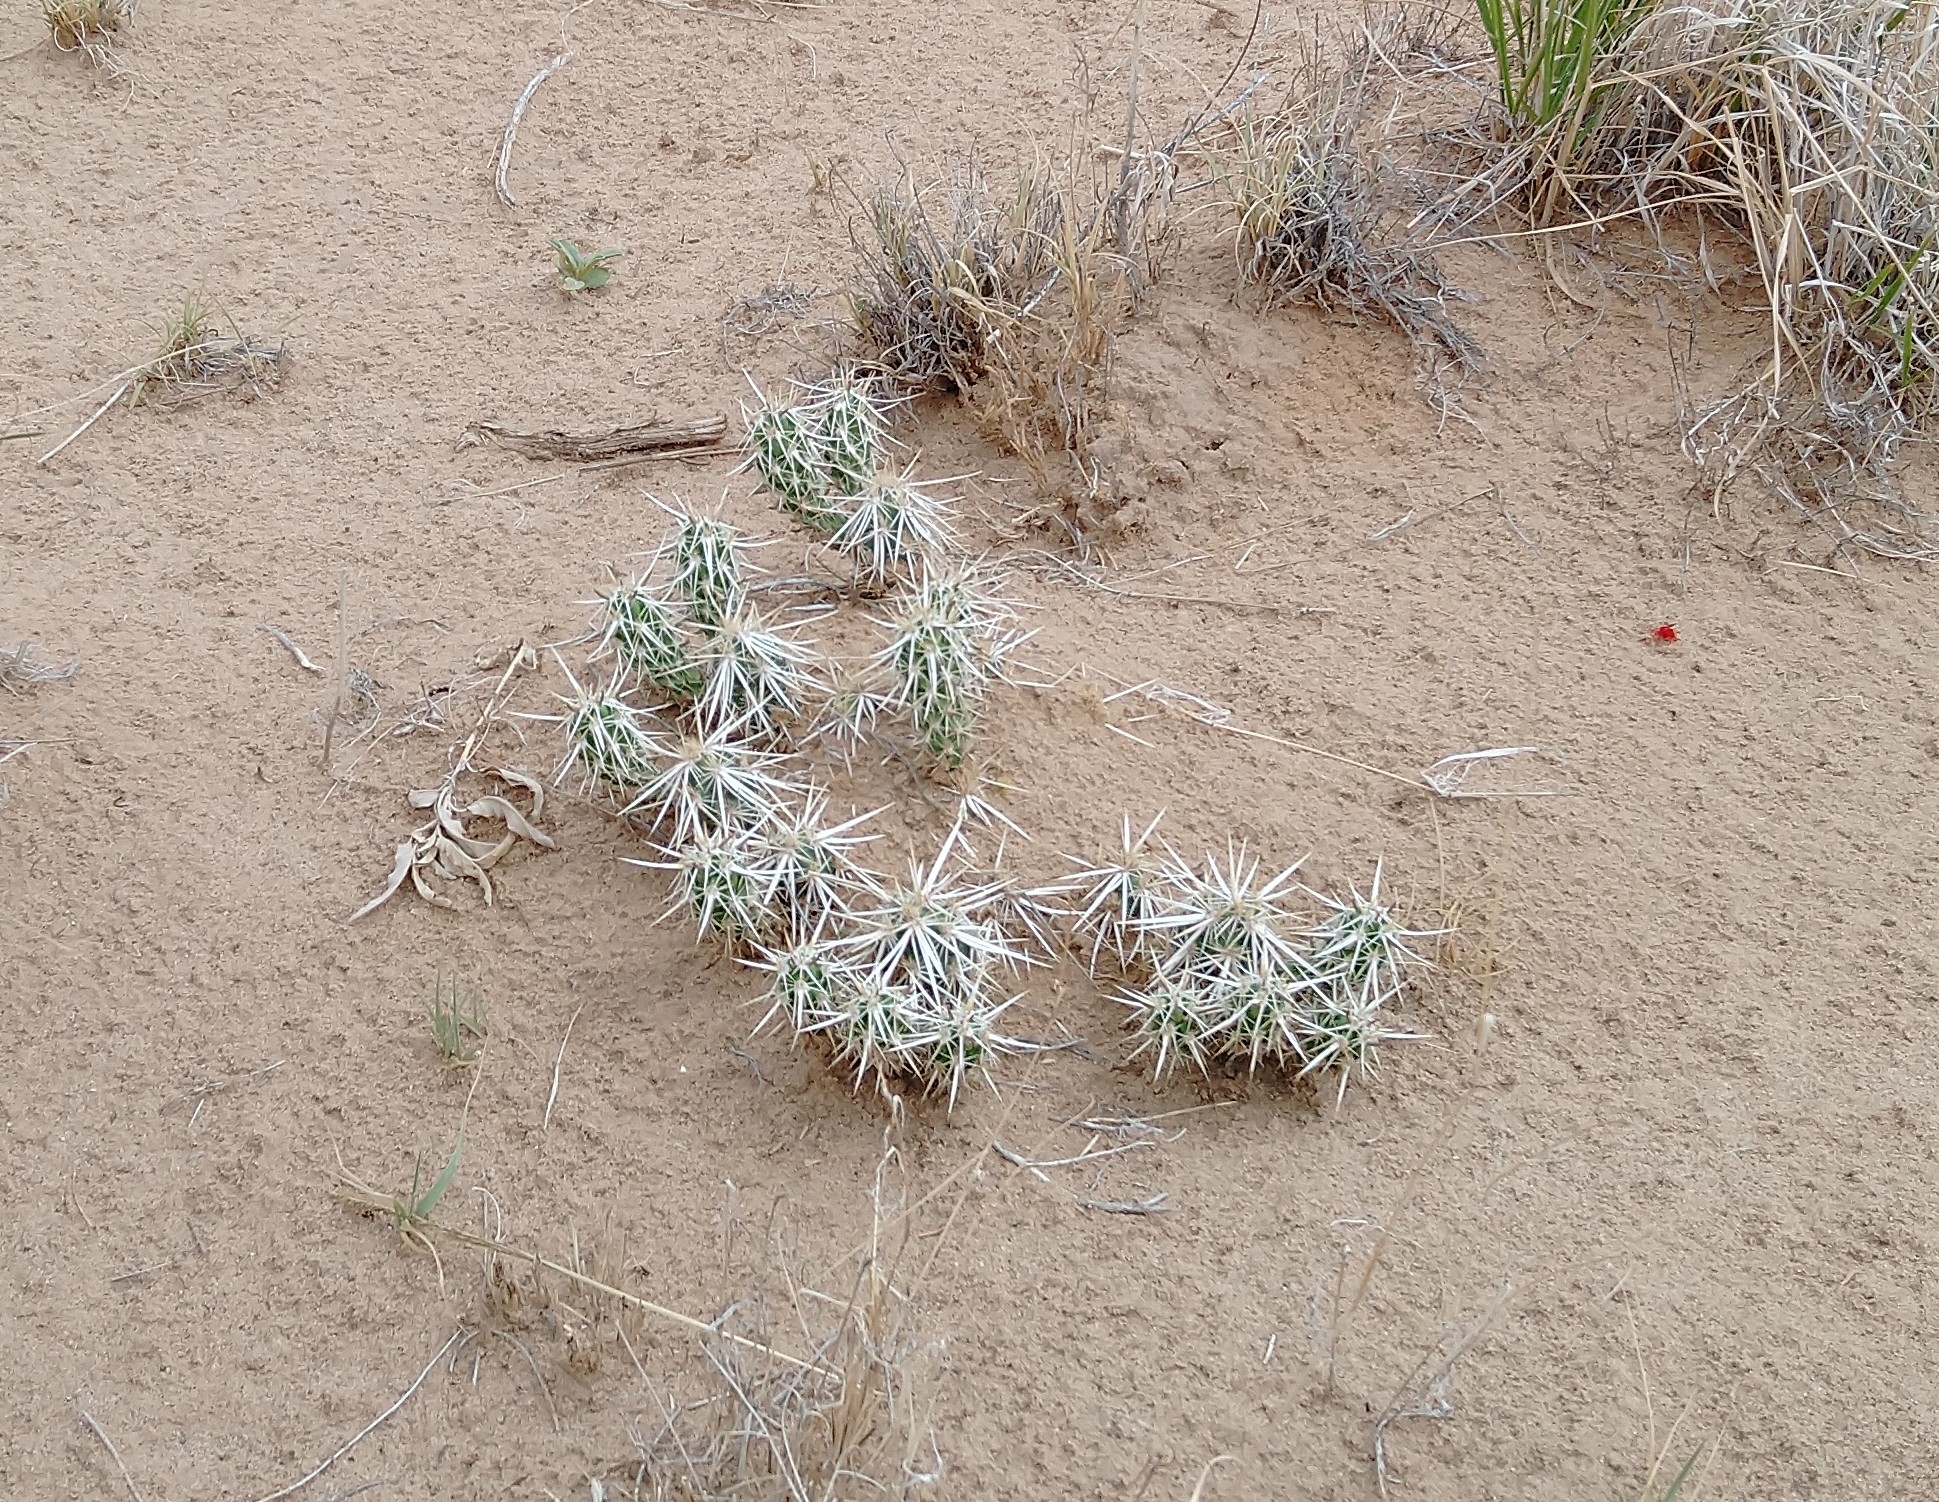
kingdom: Plantae
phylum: Tracheophyta
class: Magnoliopsida
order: Caryophyllales
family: Cactaceae
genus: Grusonia
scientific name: Grusonia clavata
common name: Club cholla
